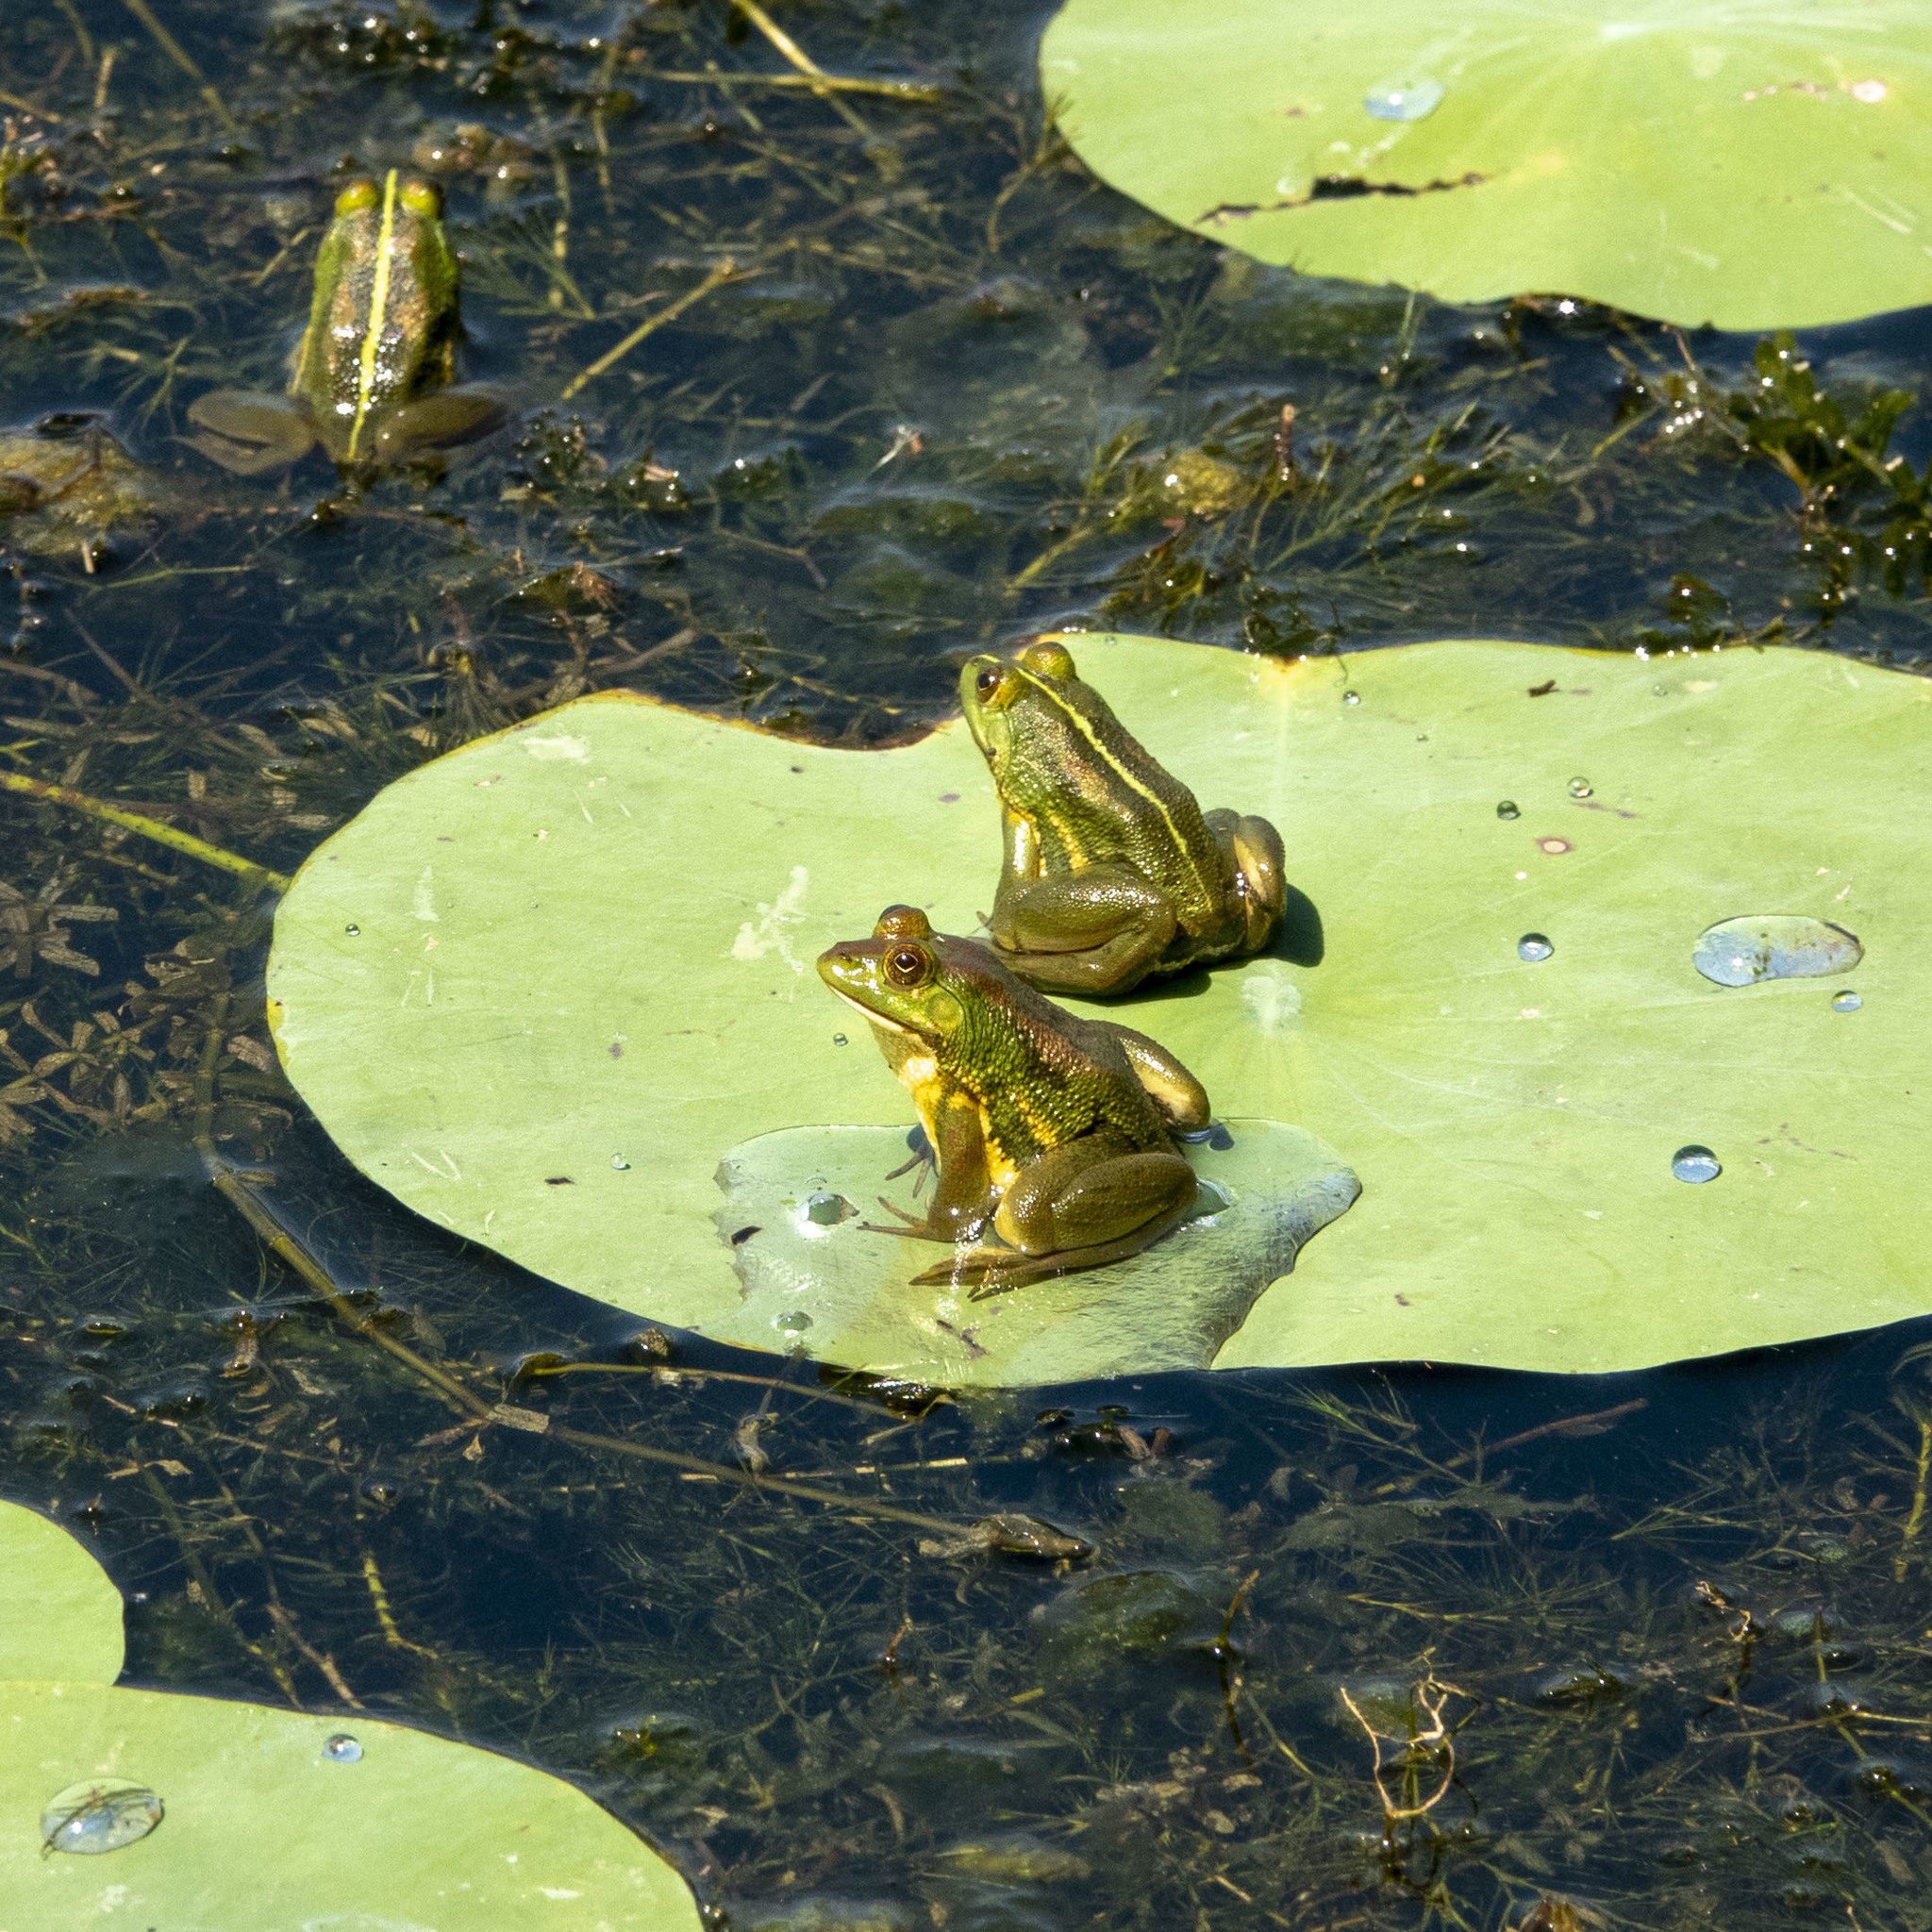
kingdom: Animalia
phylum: Chordata
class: Amphibia
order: Anura
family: Dicroglossidae
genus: Euphlyctis
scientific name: Euphlyctis hexadactylus
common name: Indian green frog
